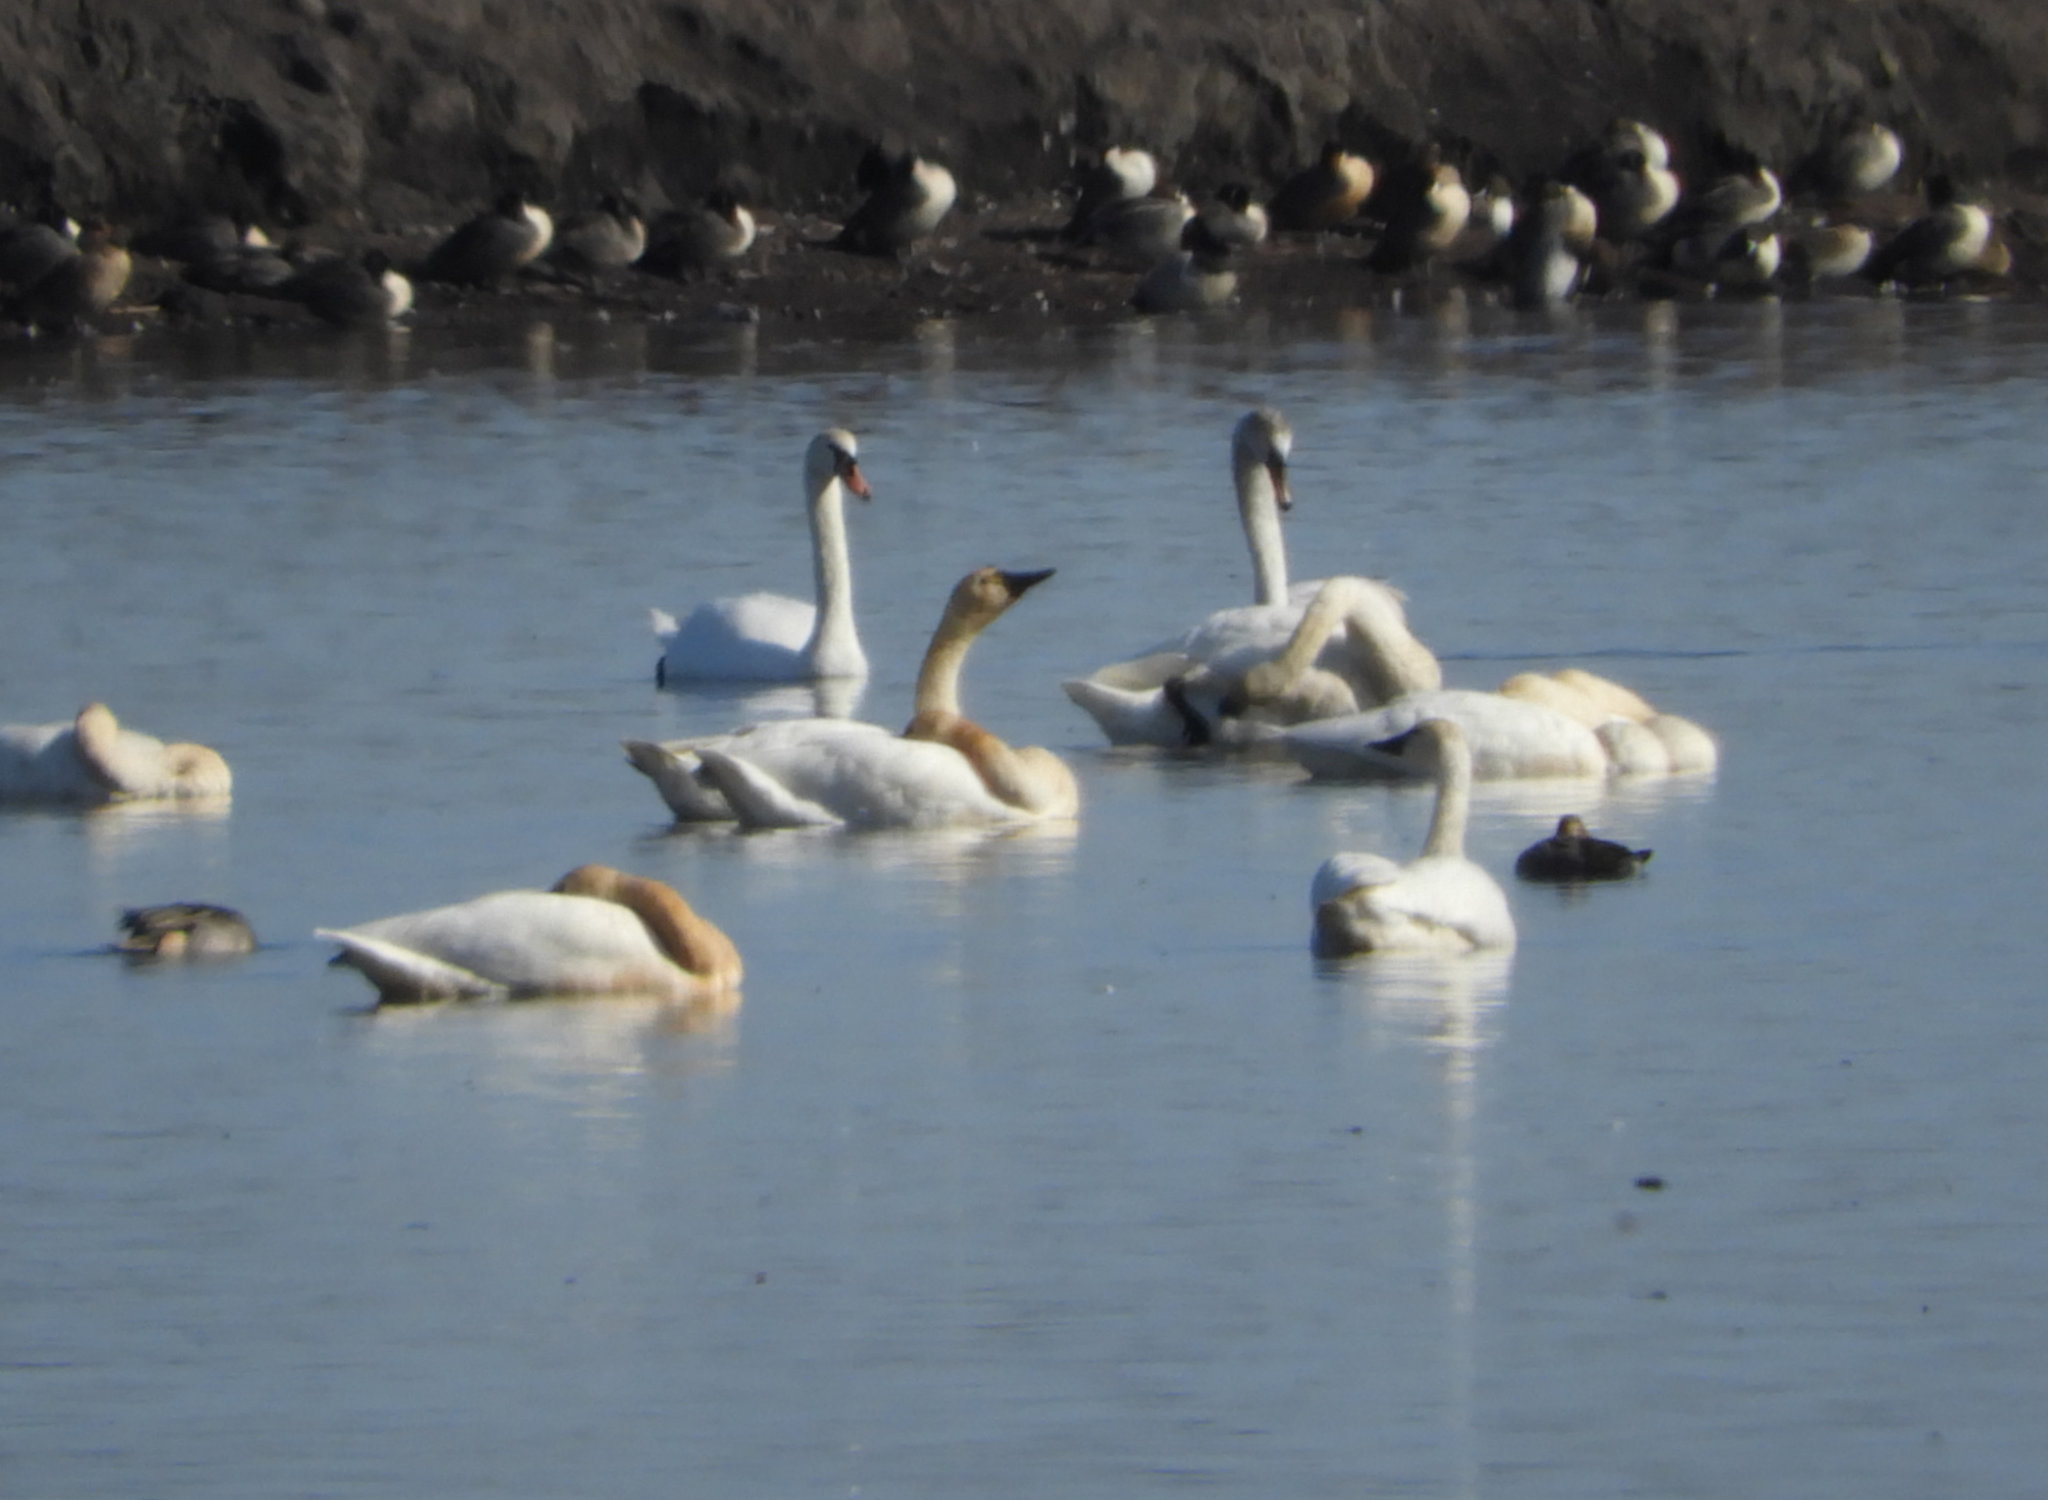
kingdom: Animalia
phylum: Chordata
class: Aves
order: Anseriformes
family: Anatidae
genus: Cygnus
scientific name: Cygnus columbianus
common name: Tundra swan
